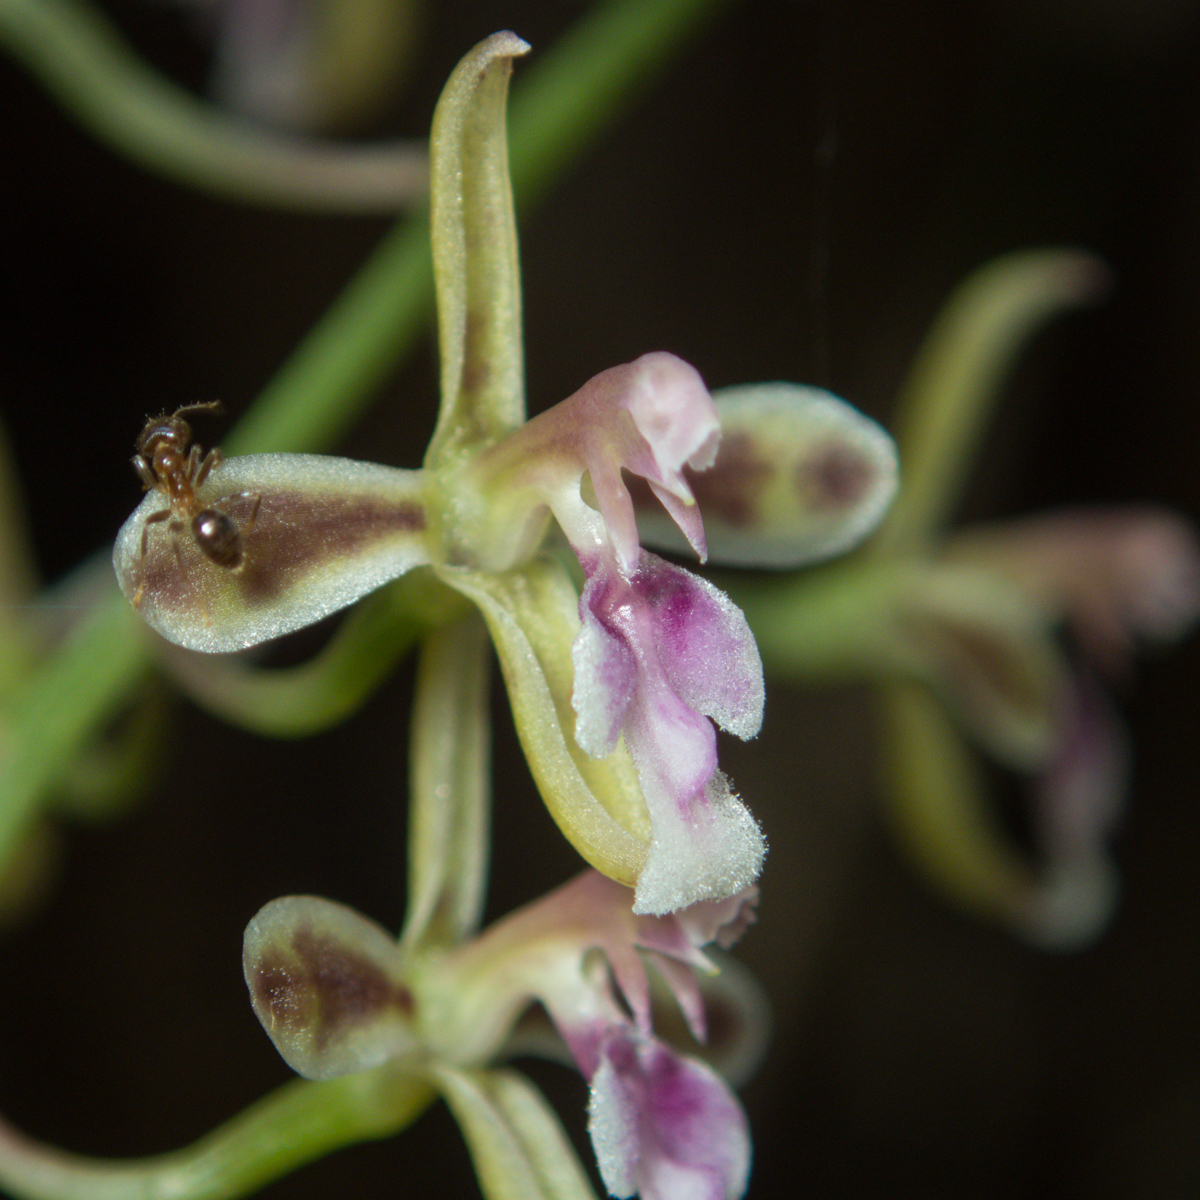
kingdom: Plantae
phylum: Tracheophyta
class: Liliopsida
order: Asparagales
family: Orchidaceae
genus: Acriopsis
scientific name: Acriopsis liliifolia
